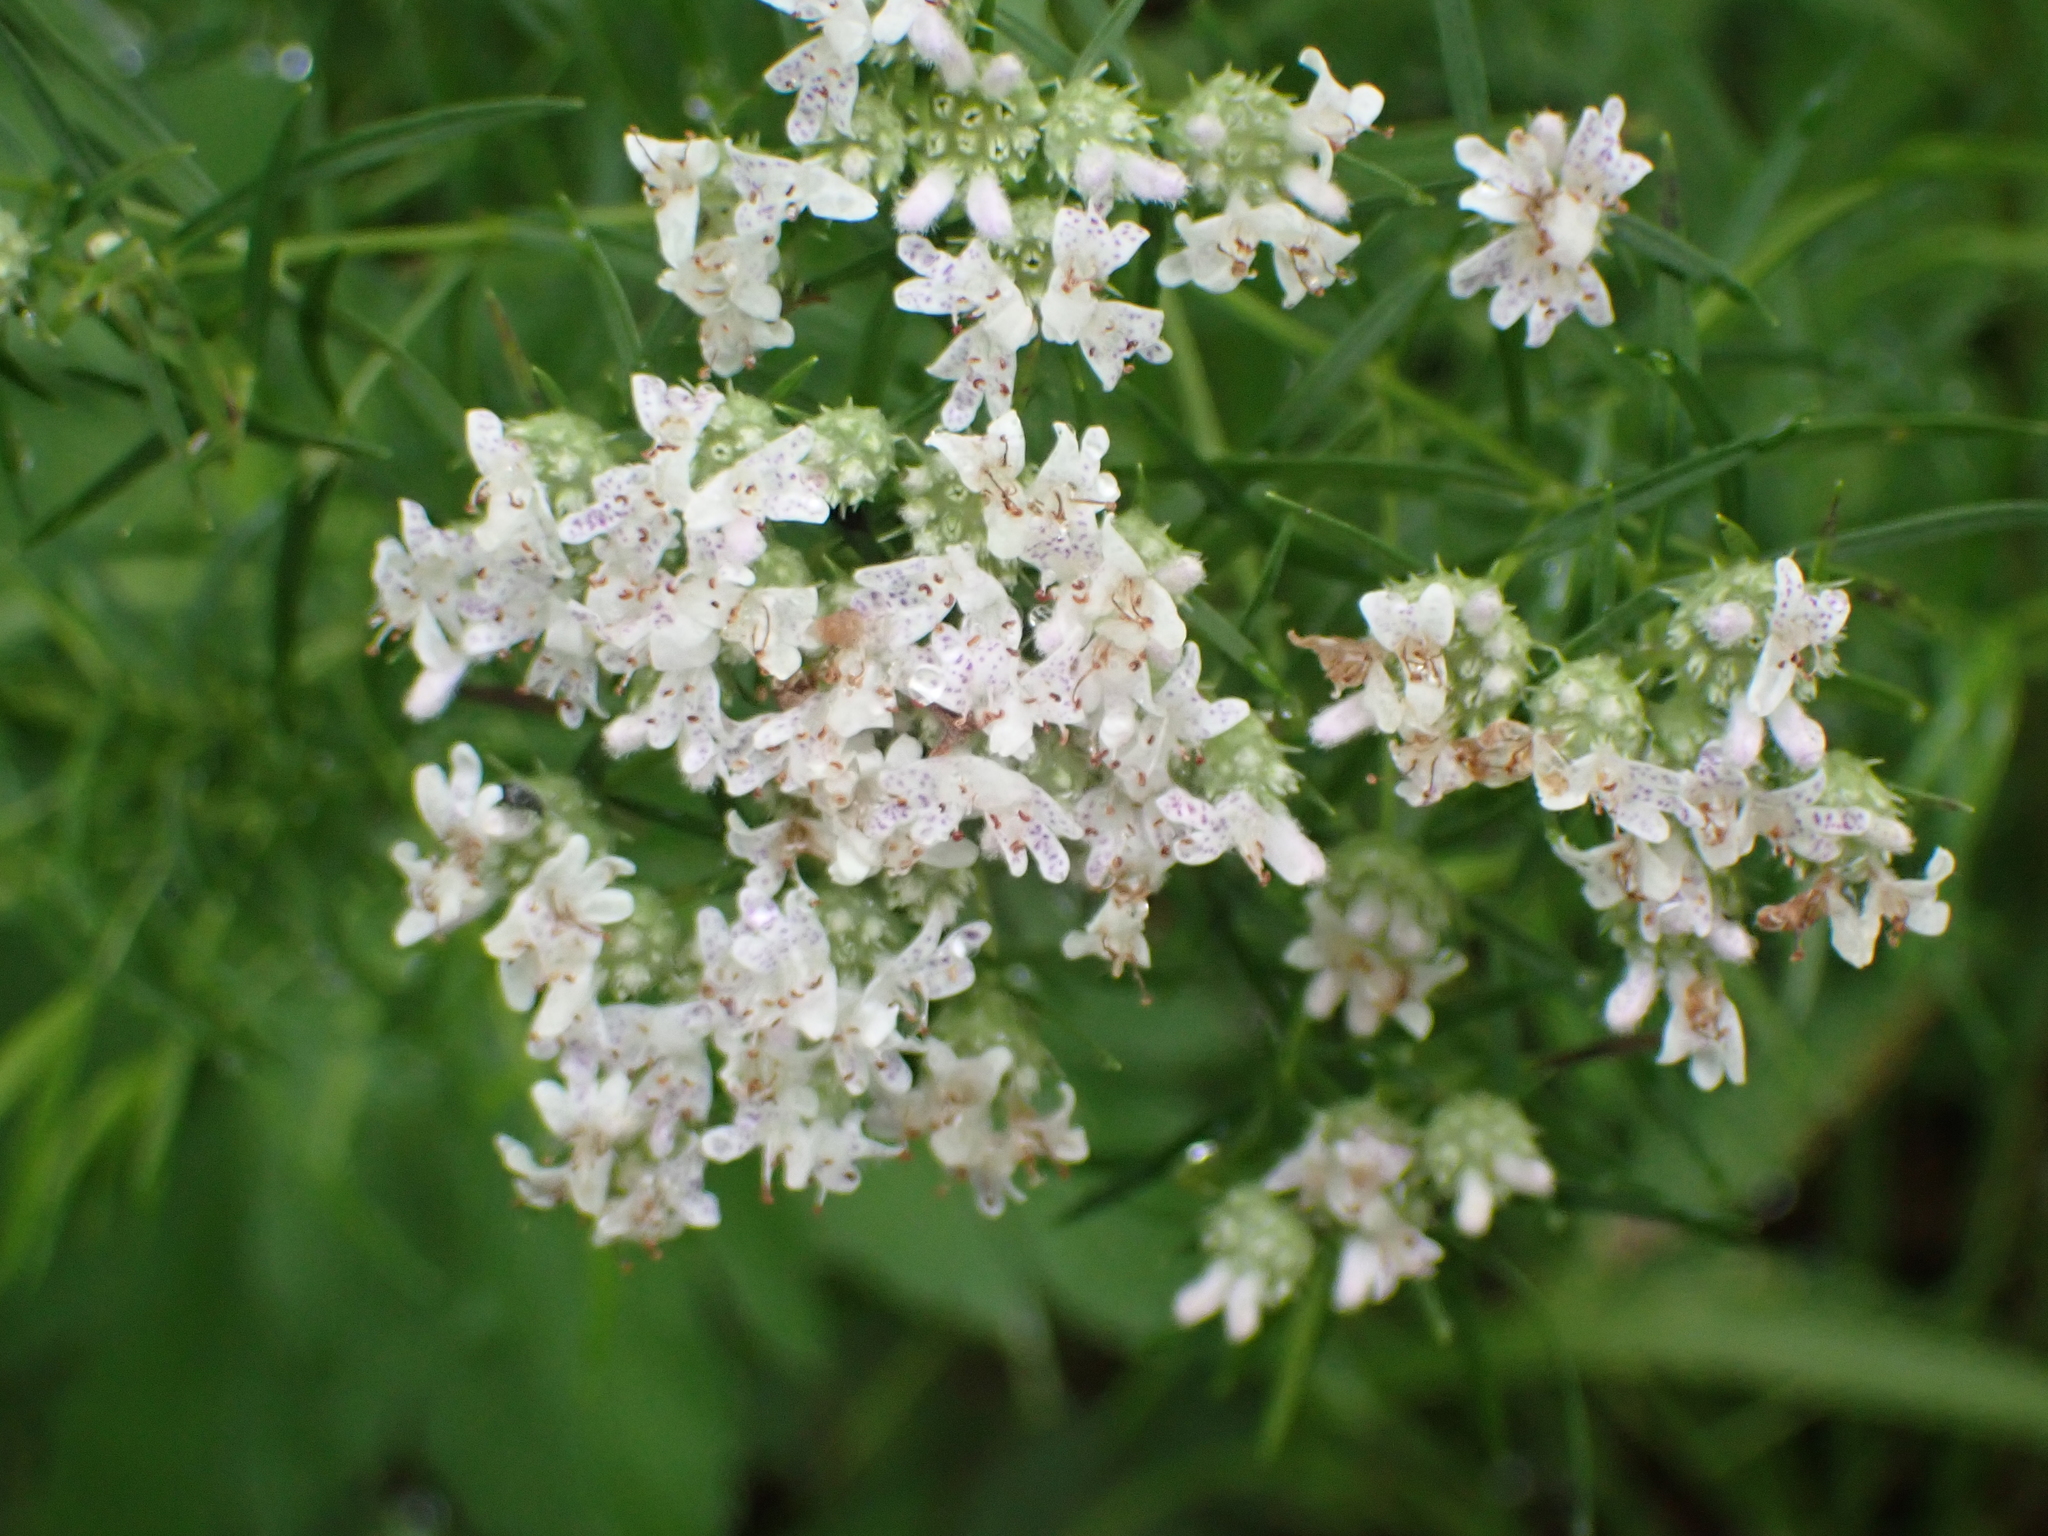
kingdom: Plantae
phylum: Tracheophyta
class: Magnoliopsida
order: Lamiales
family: Lamiaceae
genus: Pycnanthemum
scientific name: Pycnanthemum tenuifolium
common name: Narrow-leaf mountain-mint
